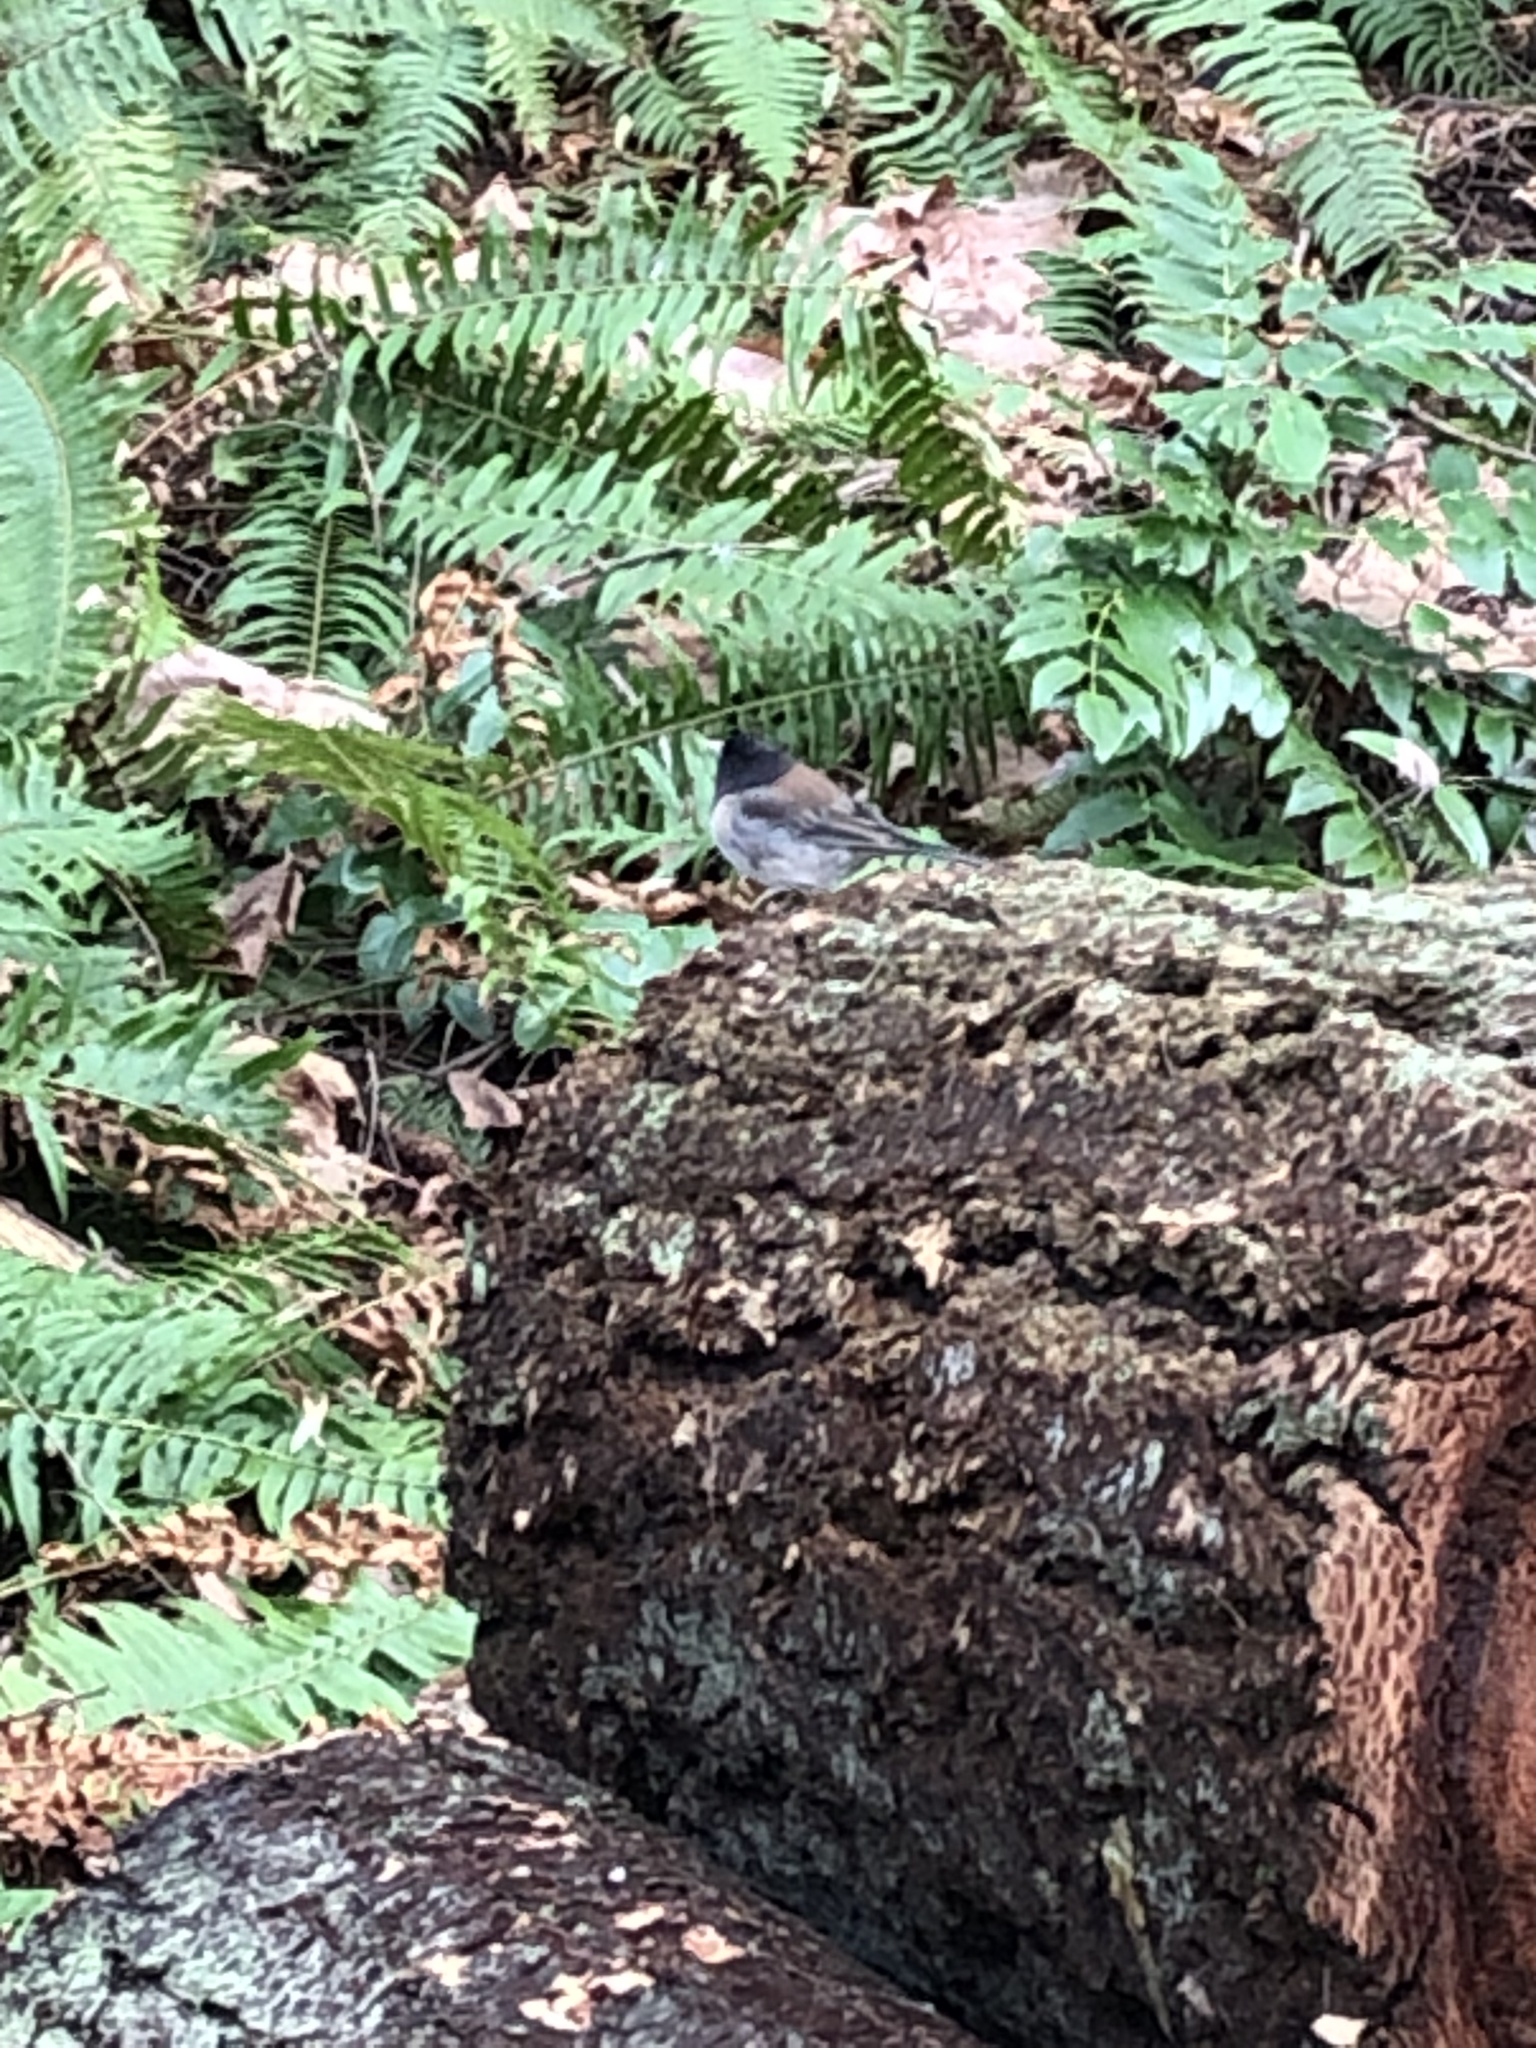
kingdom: Animalia
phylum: Chordata
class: Aves
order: Passeriformes
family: Passerellidae
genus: Junco
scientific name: Junco hyemalis
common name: Dark-eyed junco
